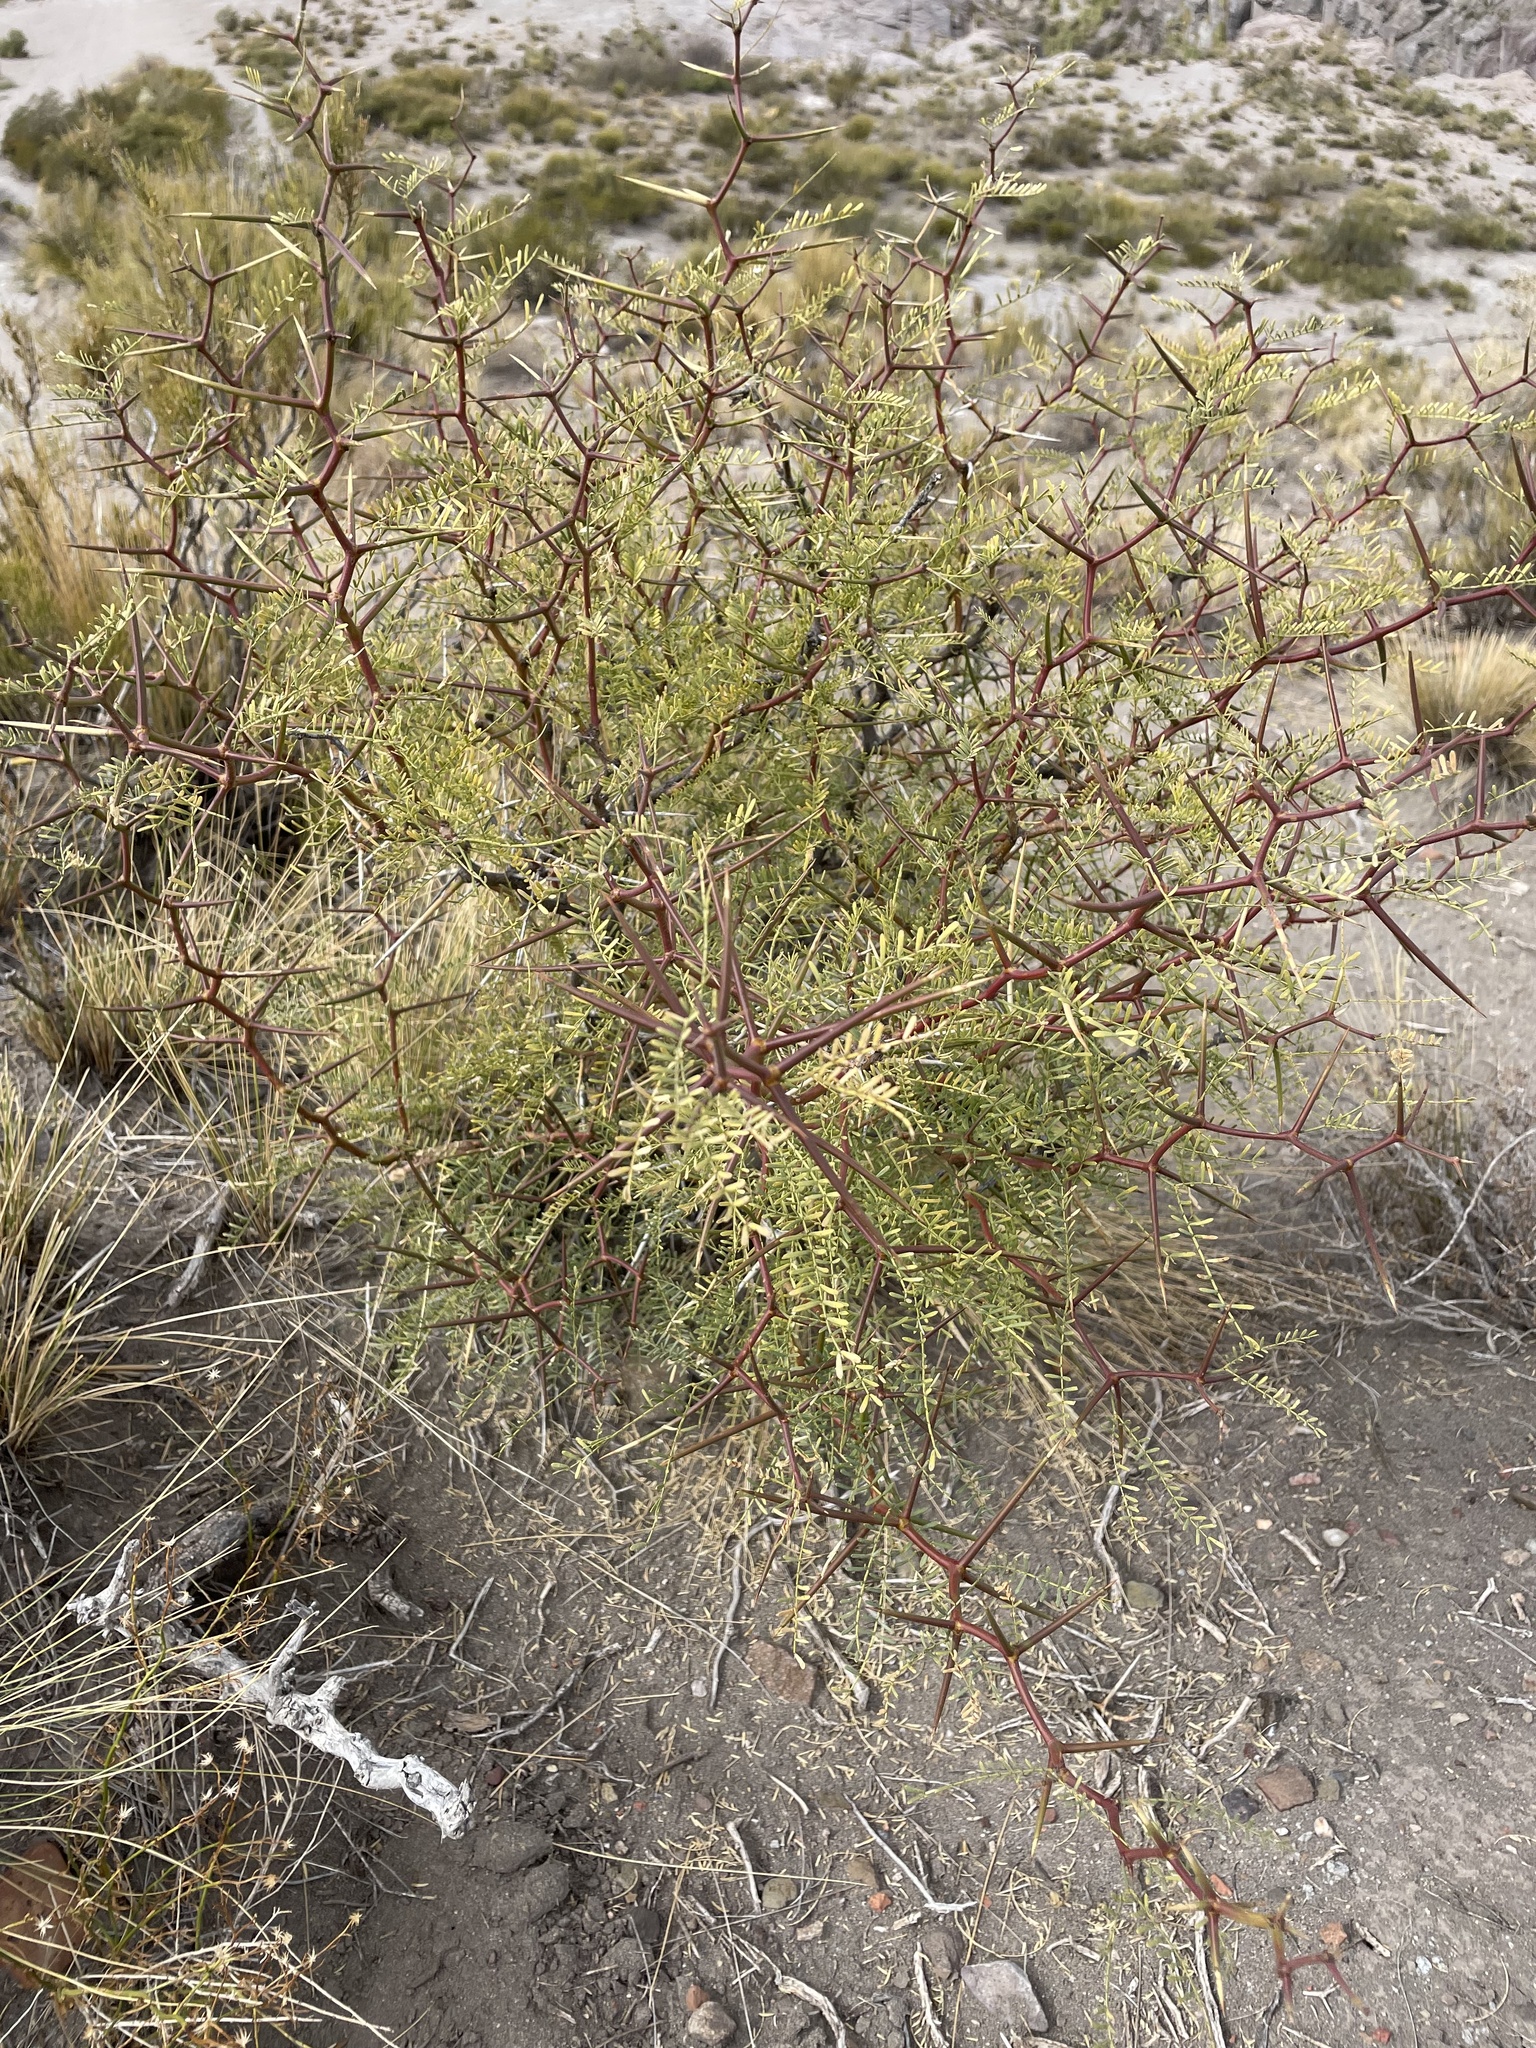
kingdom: Plantae
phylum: Tracheophyta
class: Magnoliopsida
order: Fabales
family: Fabaceae
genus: Prosopis
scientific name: Prosopis alpataco
